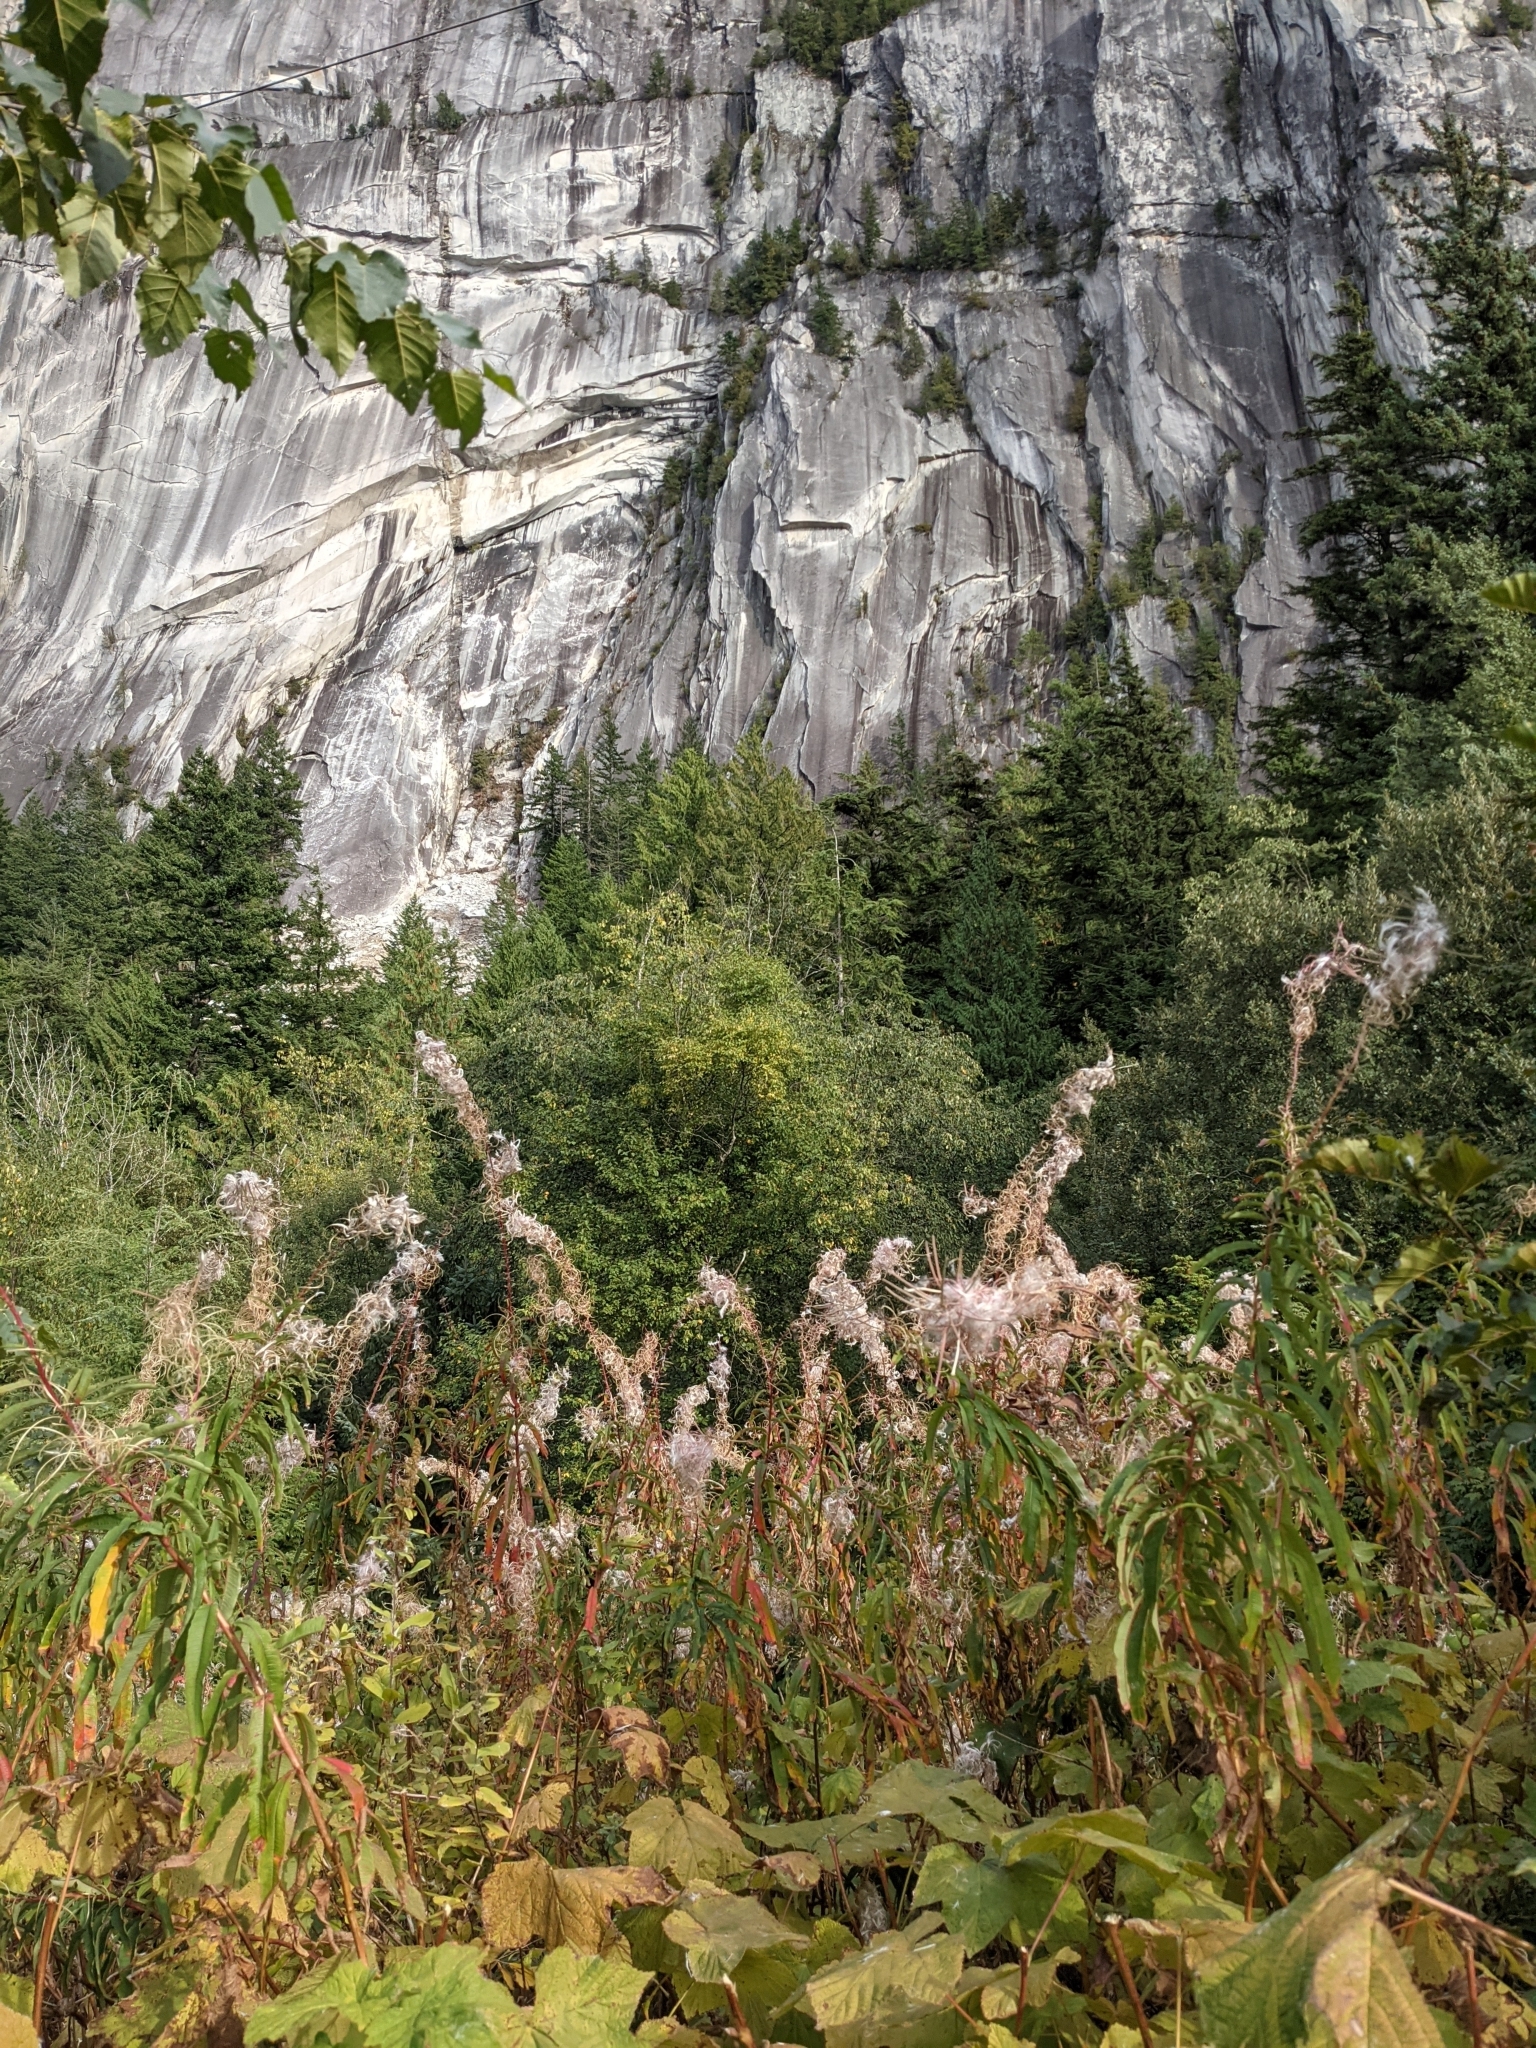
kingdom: Plantae
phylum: Tracheophyta
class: Magnoliopsida
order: Myrtales
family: Onagraceae
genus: Chamaenerion
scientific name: Chamaenerion angustifolium
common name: Fireweed
